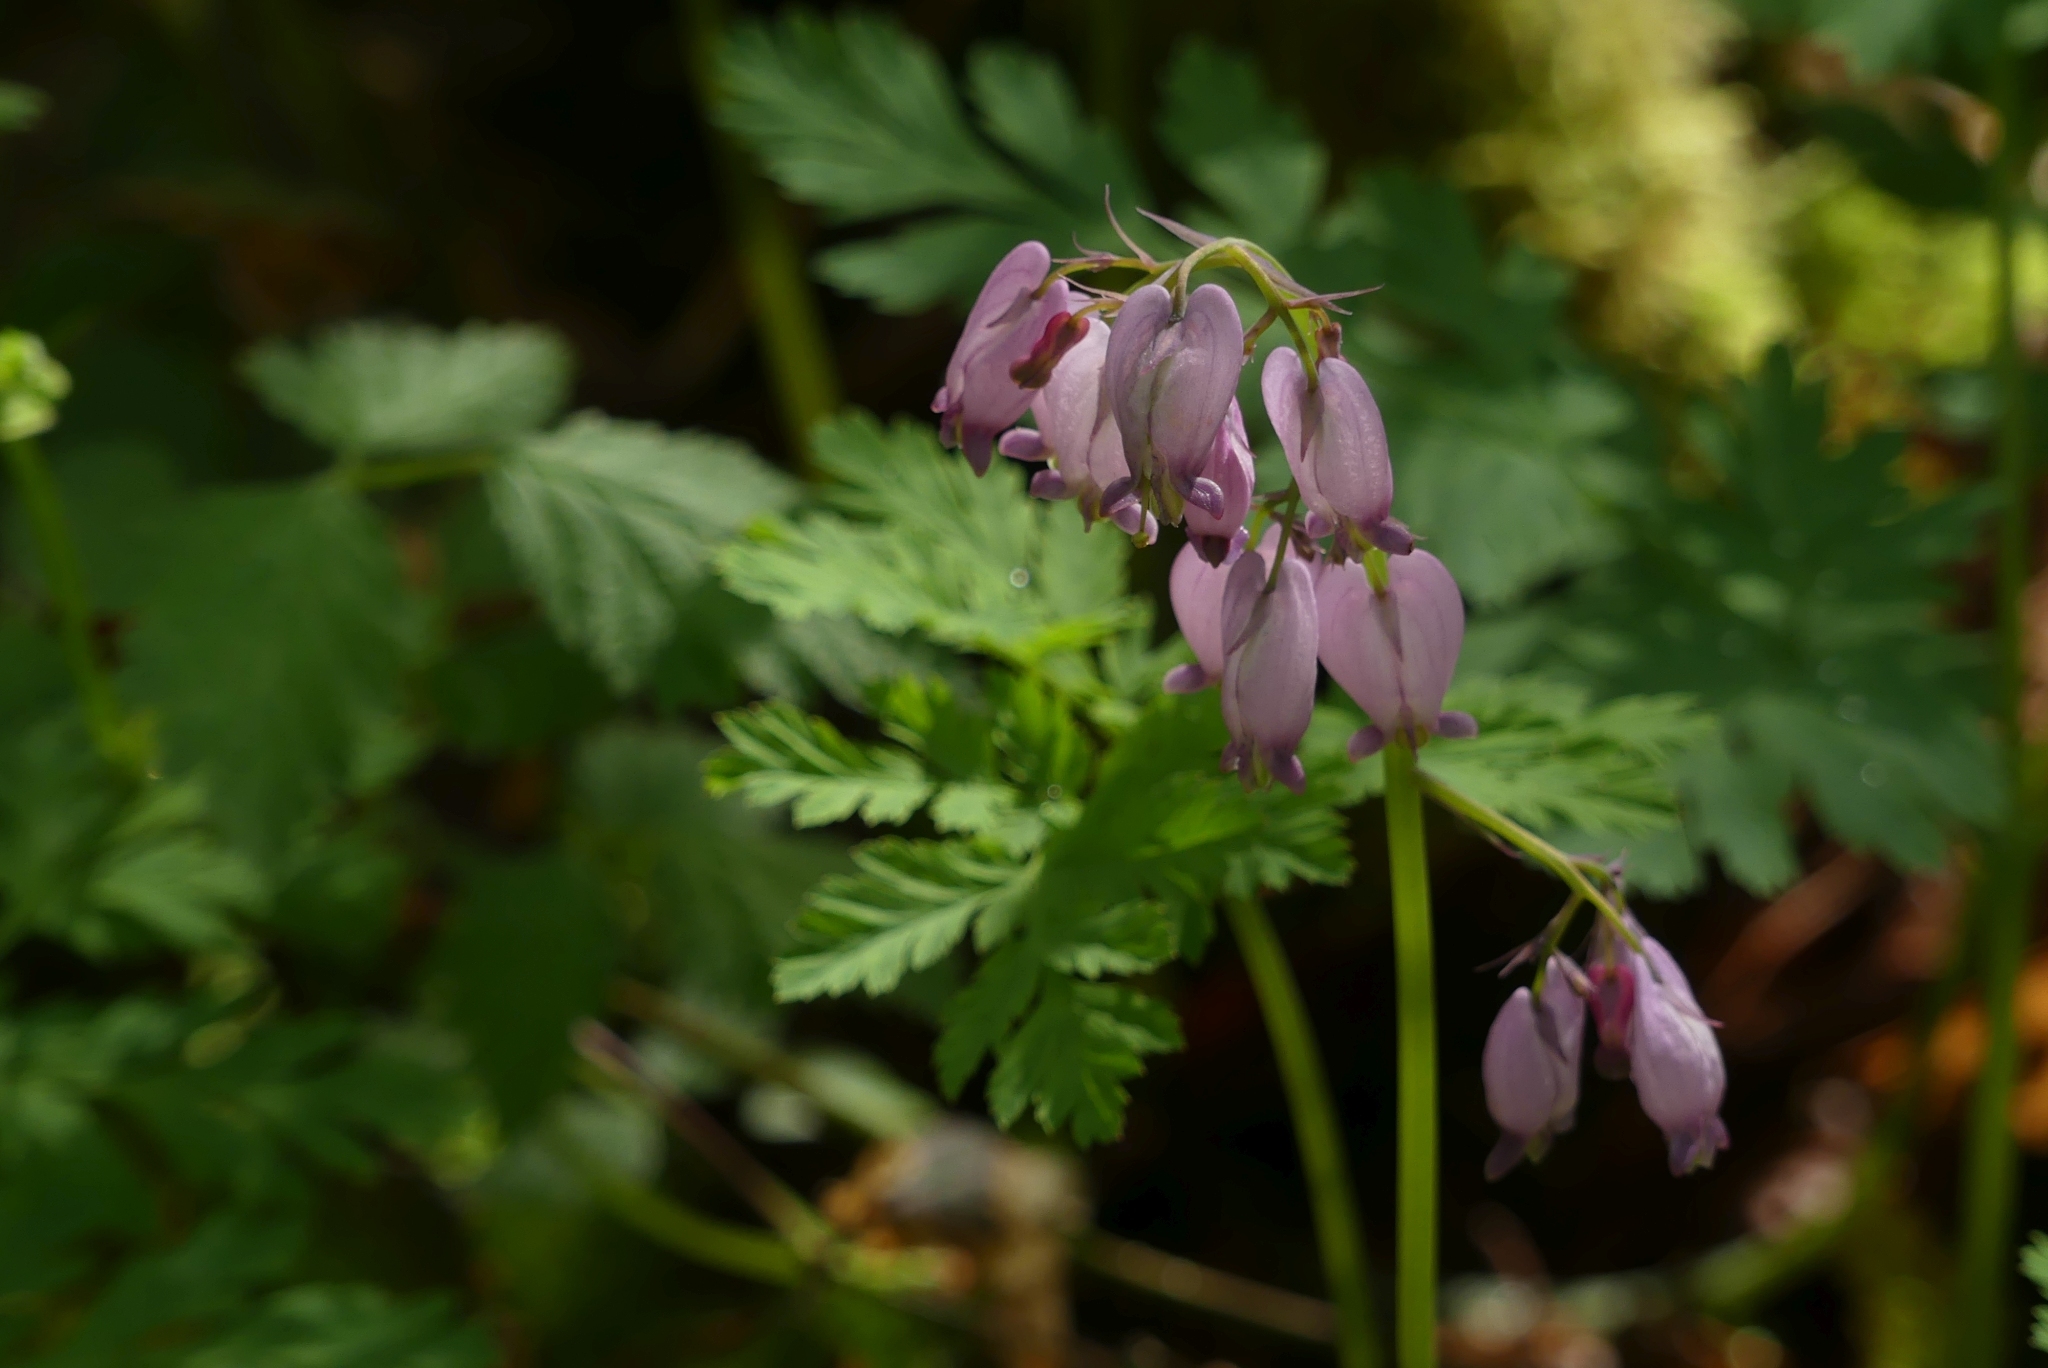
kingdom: Plantae
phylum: Tracheophyta
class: Magnoliopsida
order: Ranunculales
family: Papaveraceae
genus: Dicentra
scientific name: Dicentra formosa
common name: Bleeding-heart
